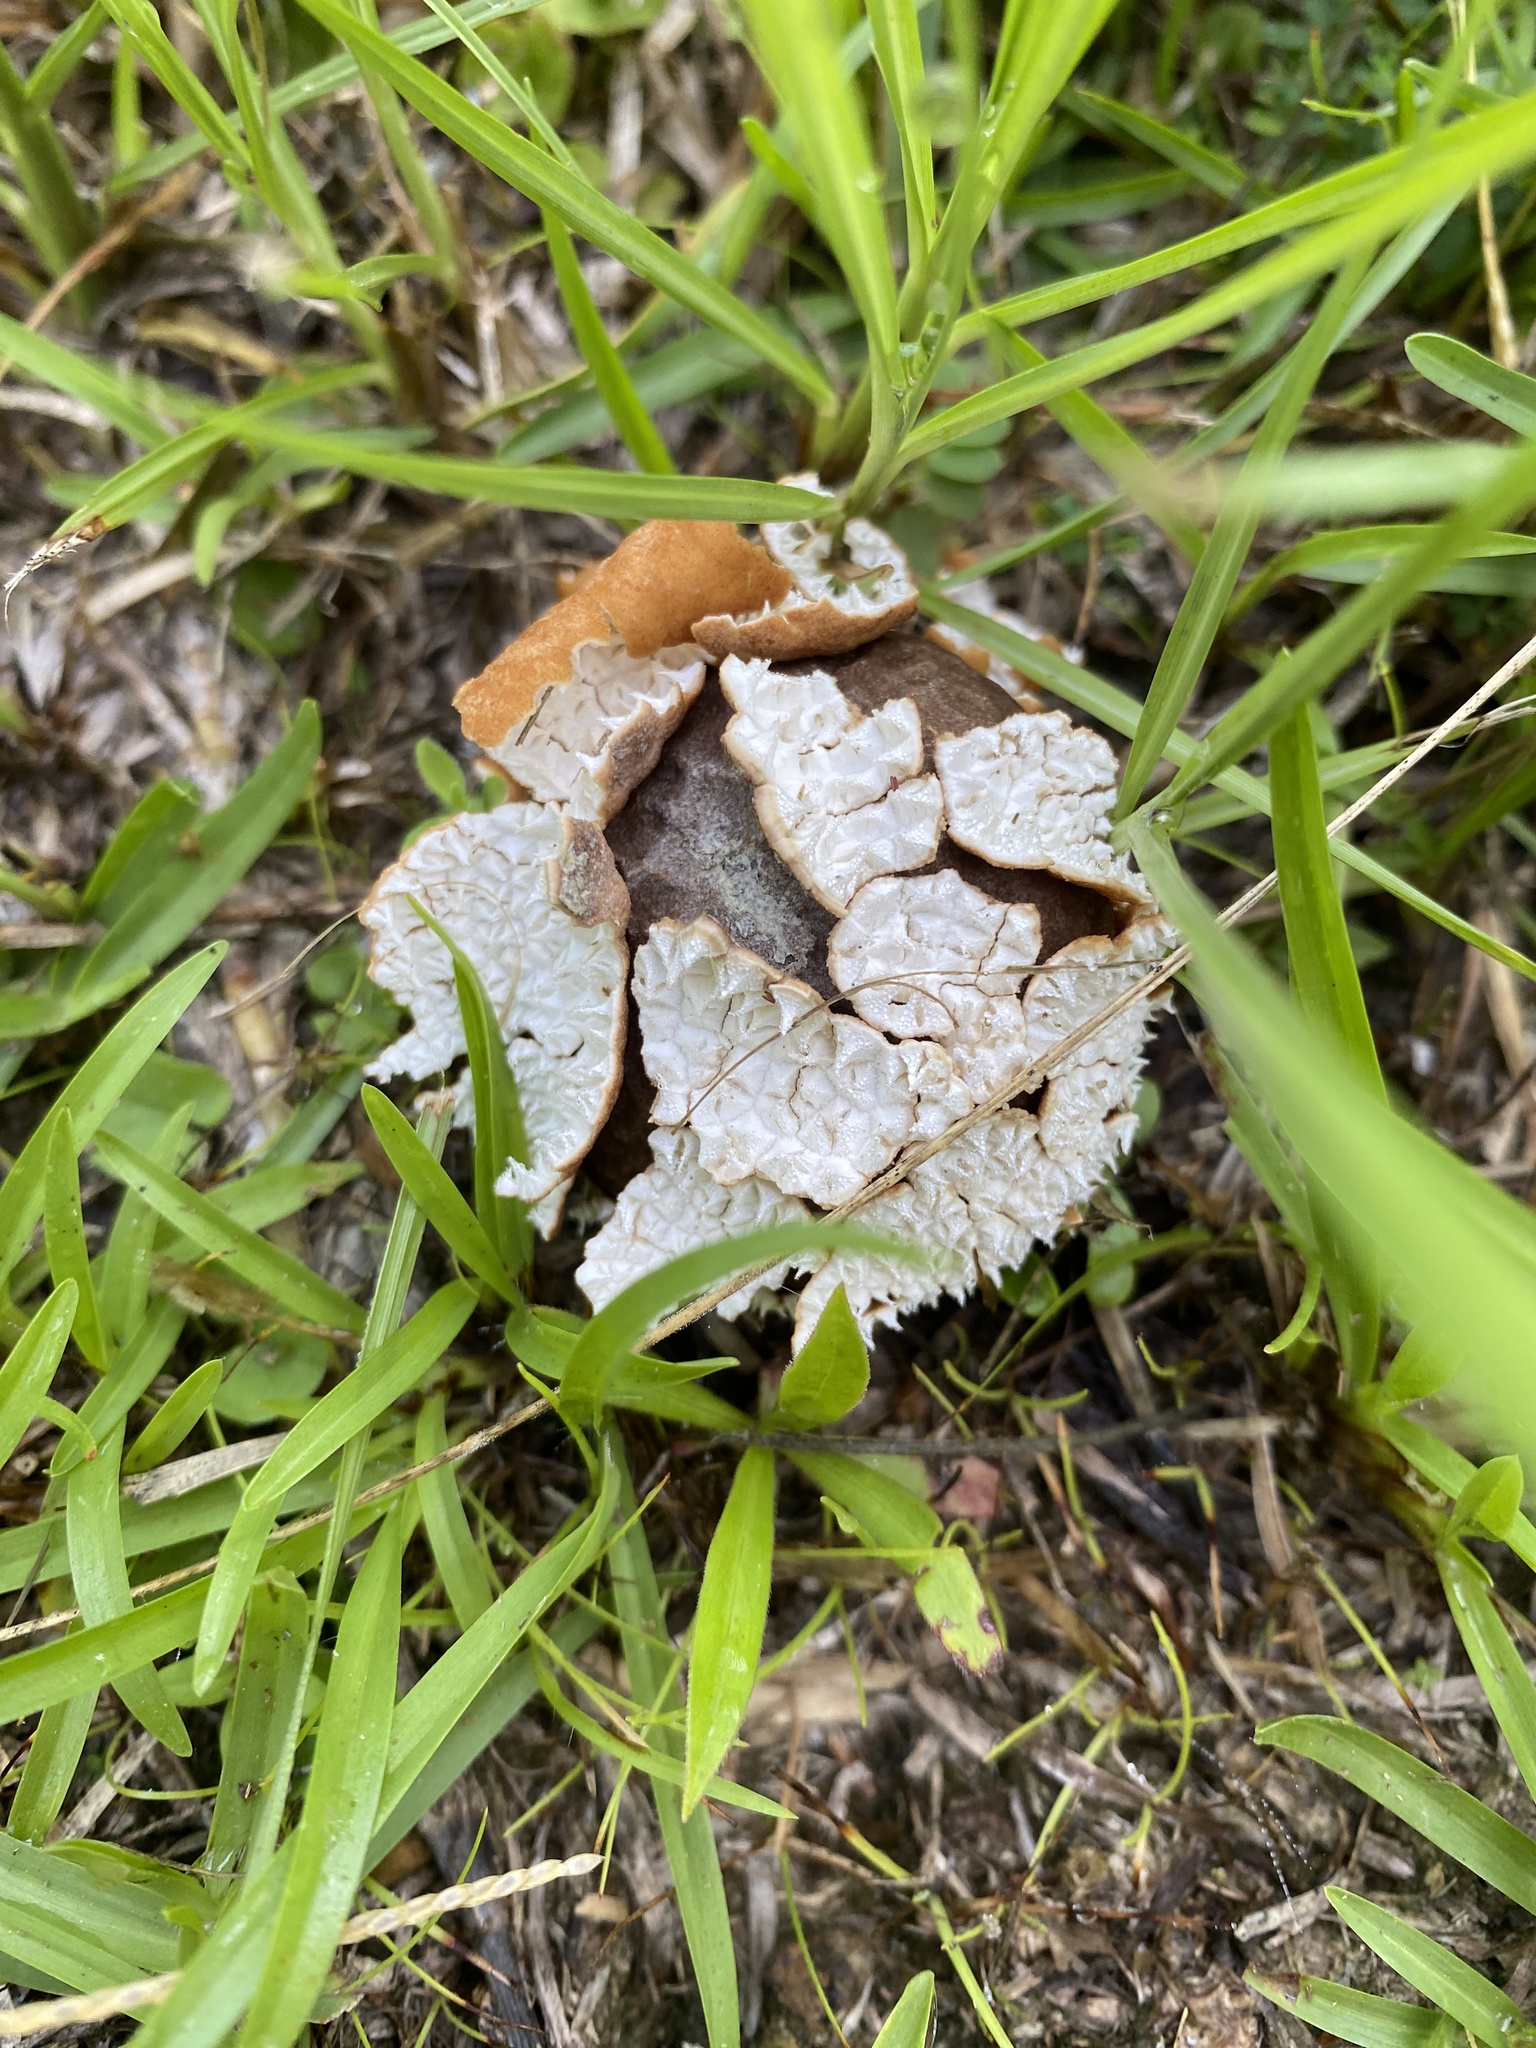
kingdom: Fungi
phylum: Basidiomycota
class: Agaricomycetes
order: Agaricales
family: Agaricaceae
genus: Lycoperdon
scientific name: Lycoperdon marginatum
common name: Peeling puffball
